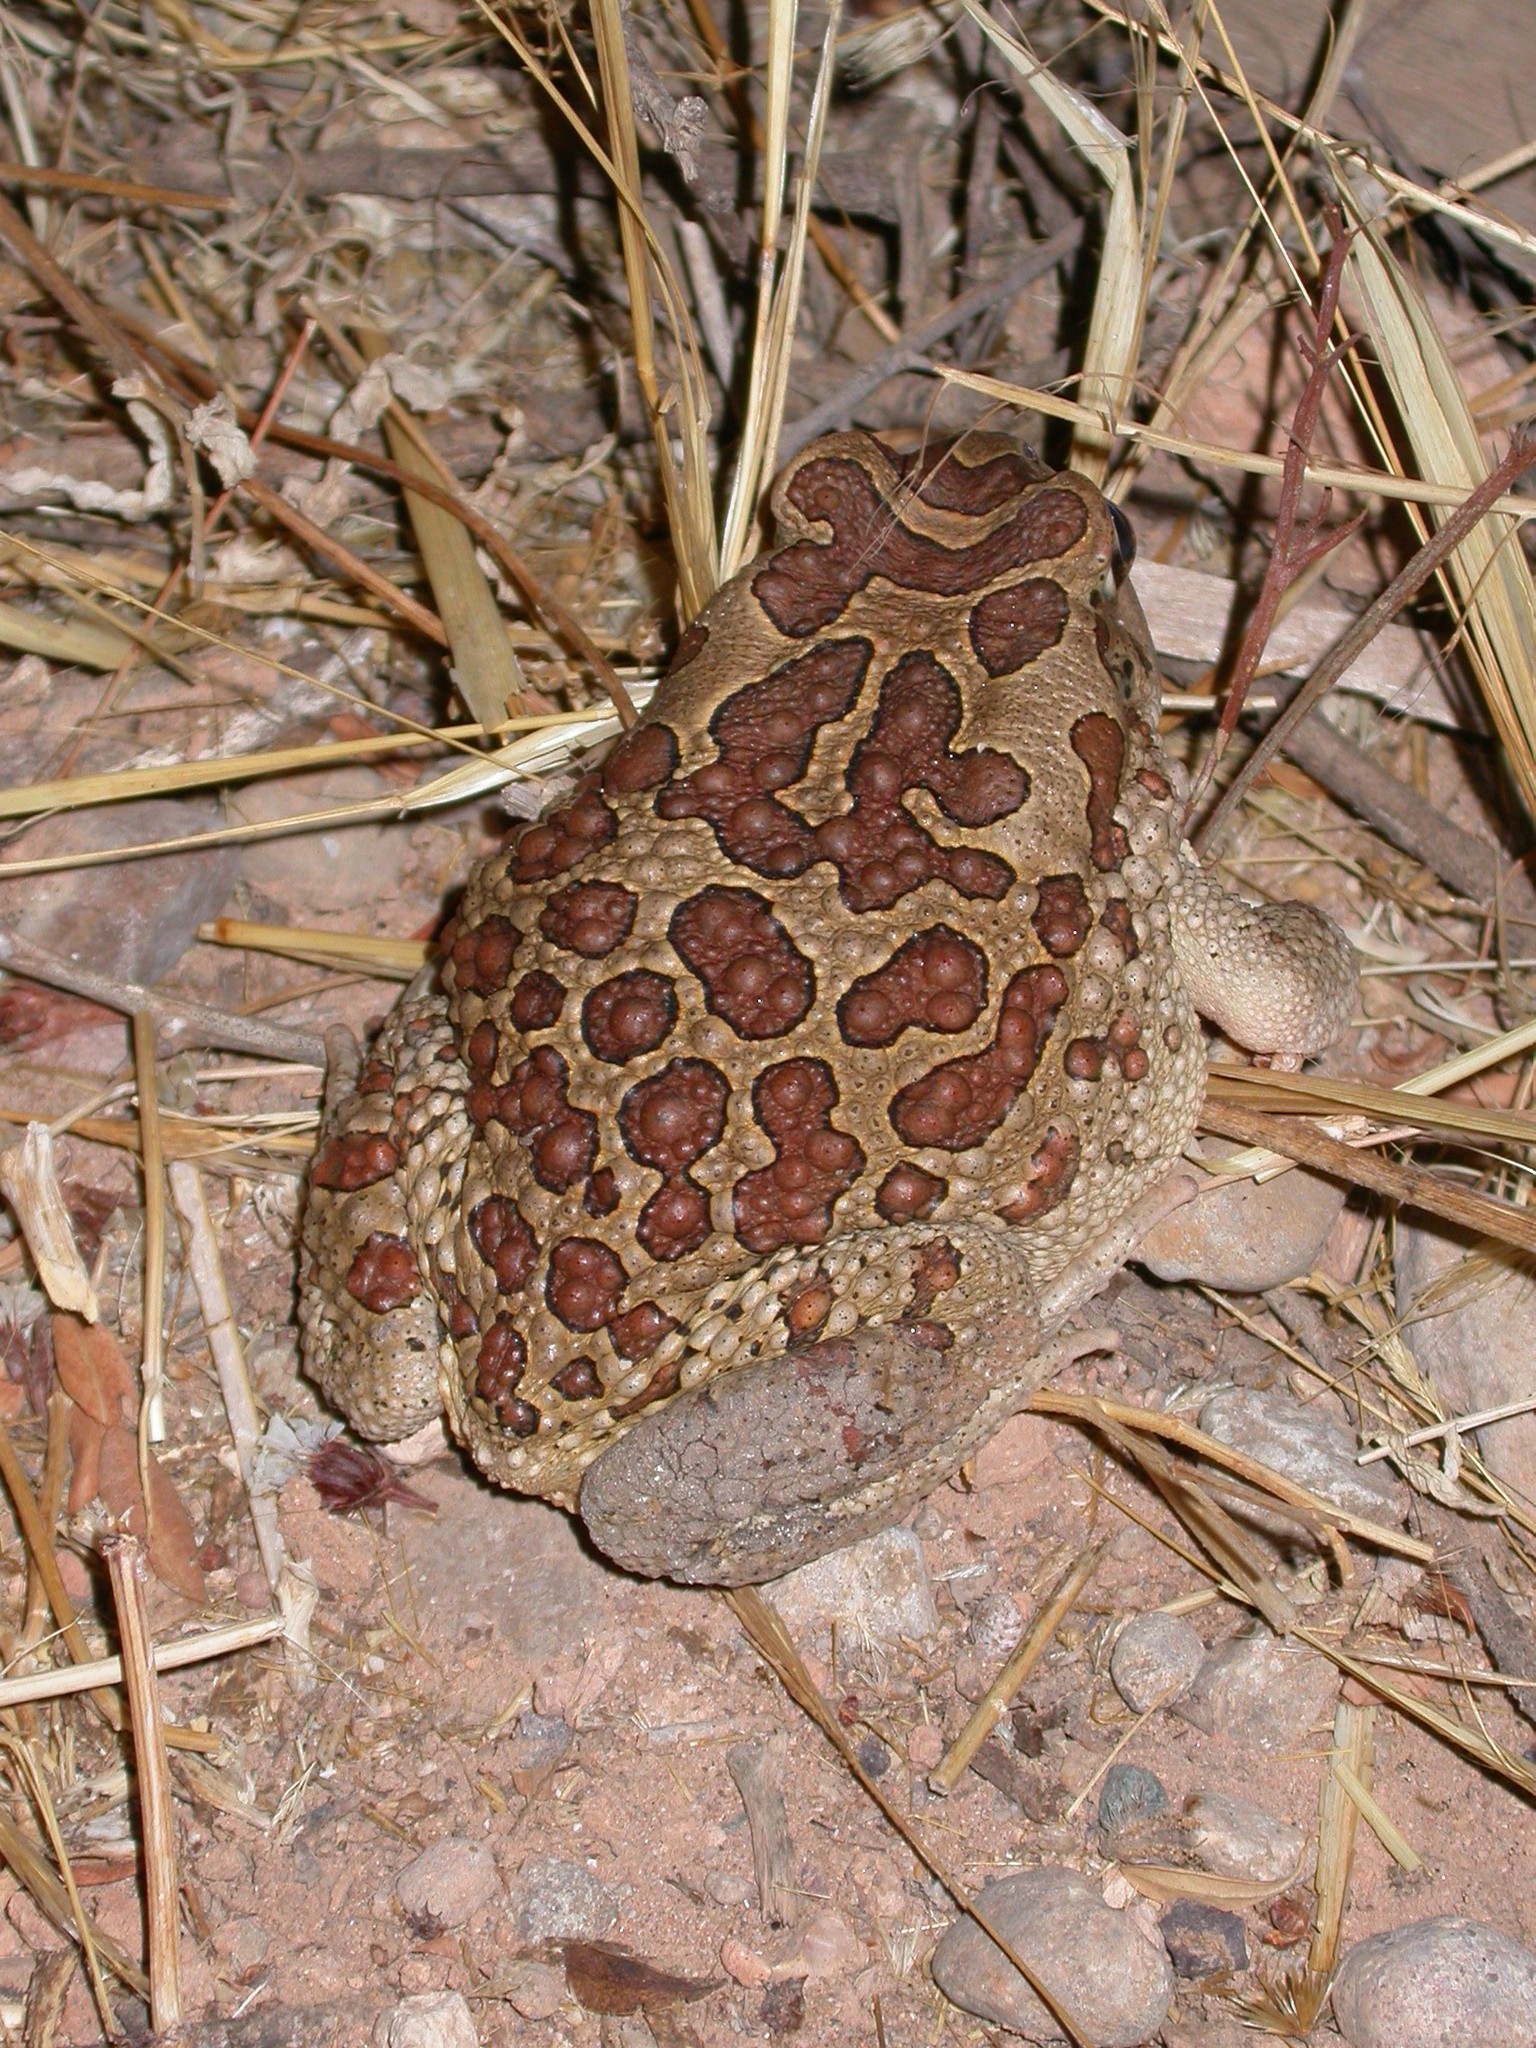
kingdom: Animalia
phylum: Chordata
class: Amphibia
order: Anura
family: Bufonidae
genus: Sclerophrys
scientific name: Sclerophrys mauritanica
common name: Berber toad
